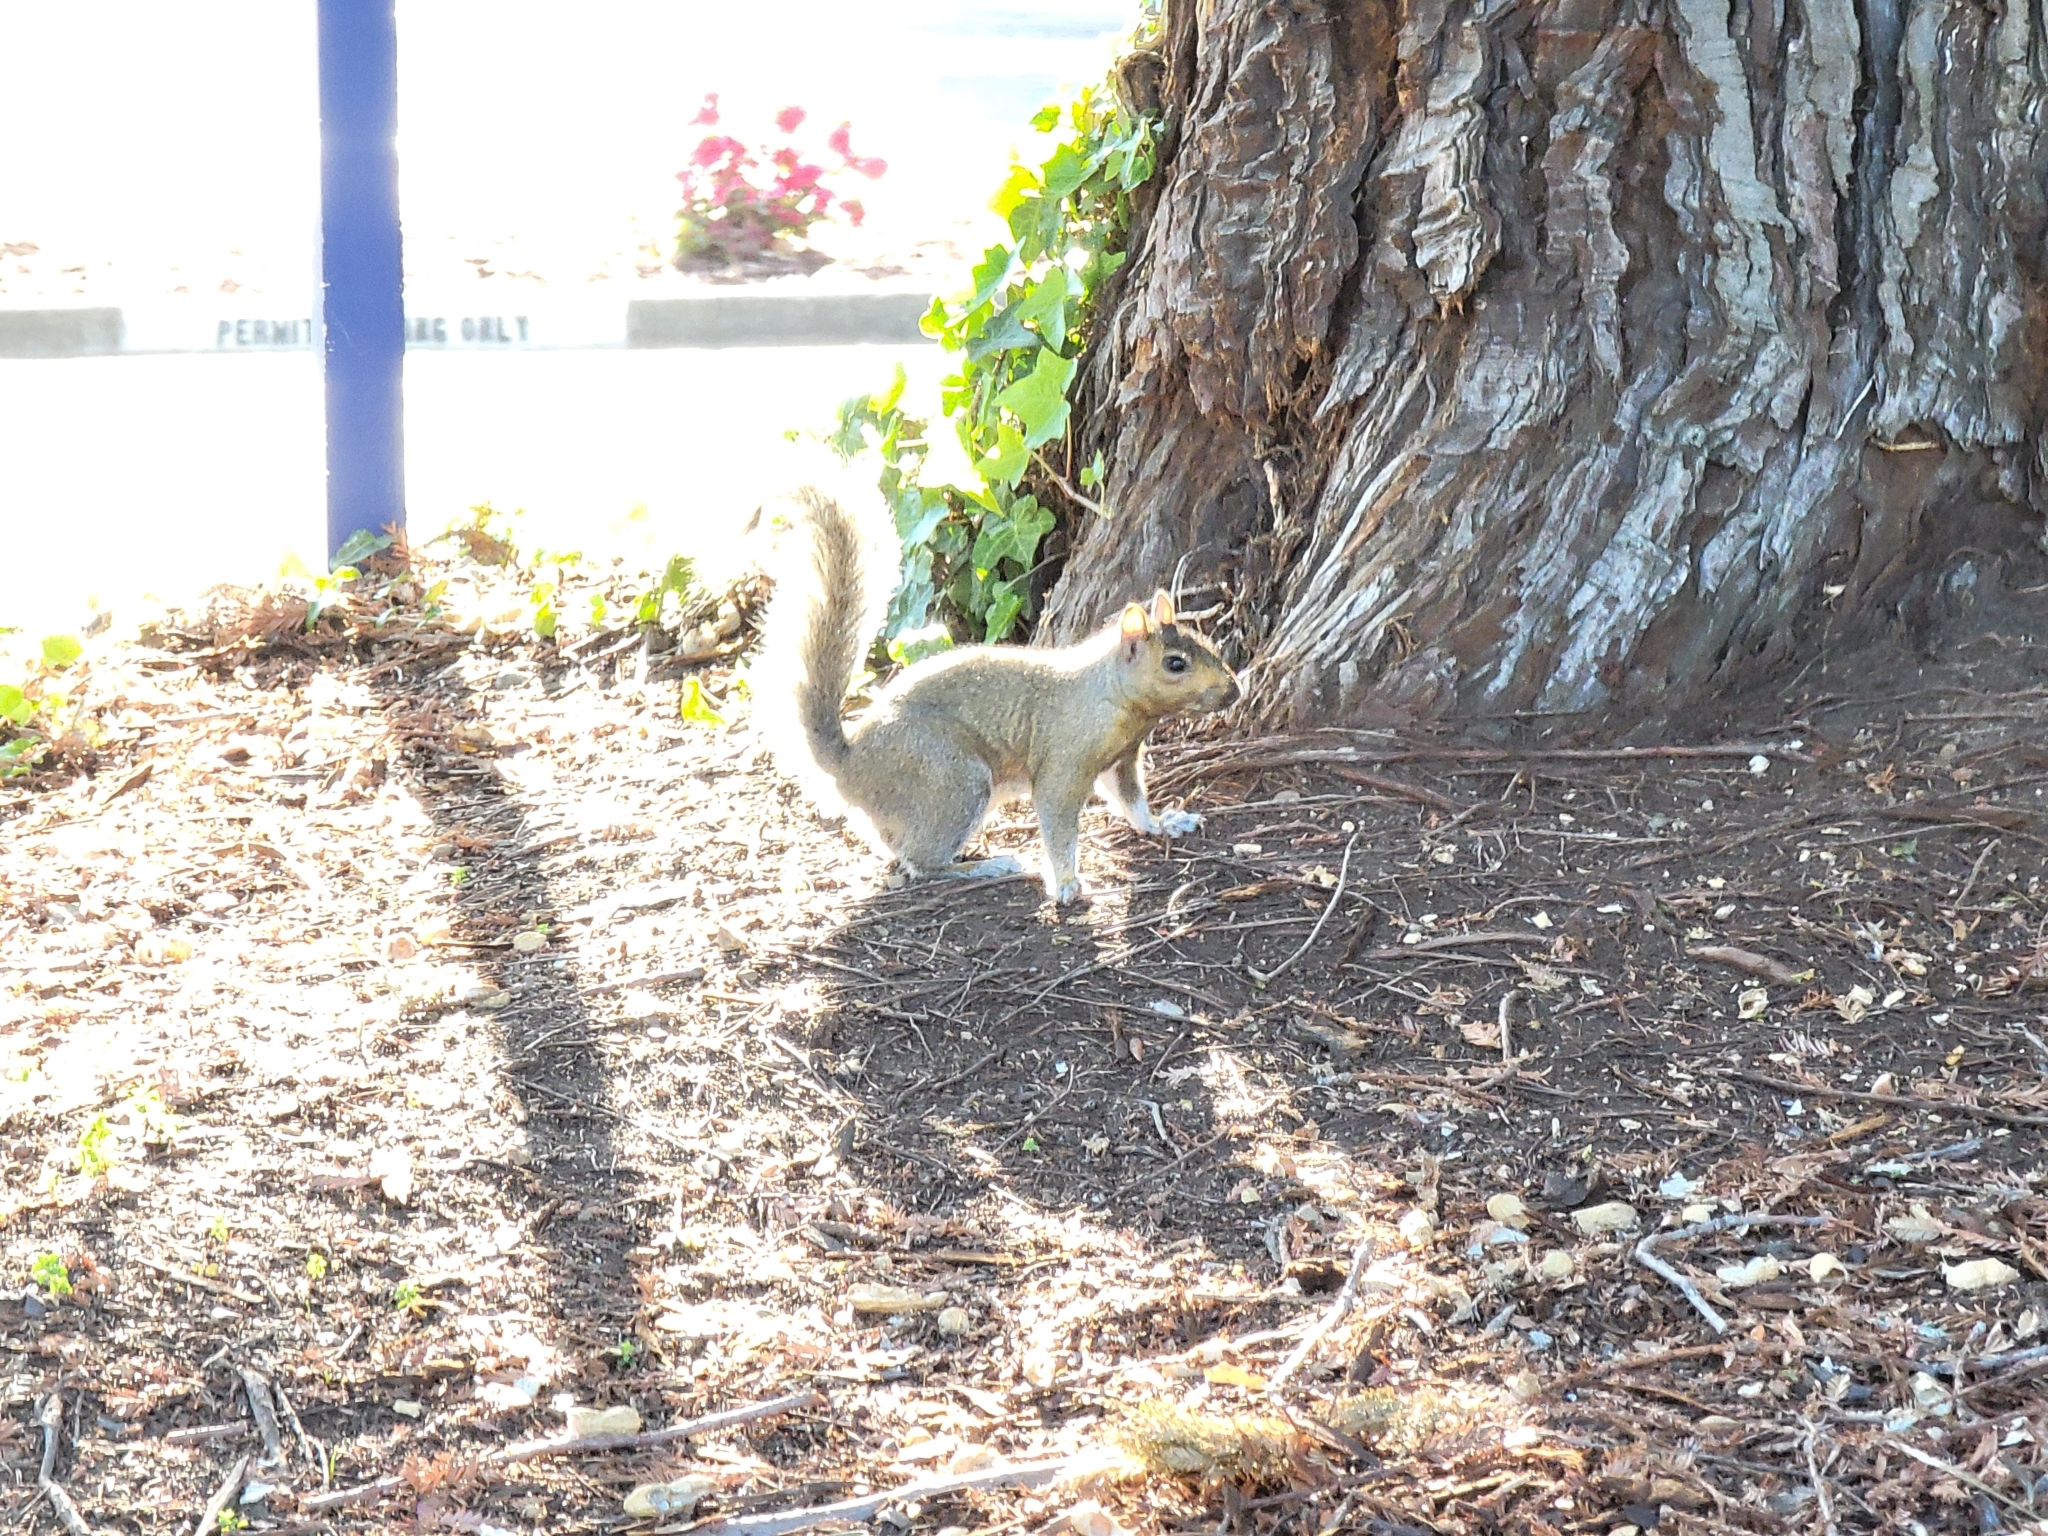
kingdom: Animalia
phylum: Chordata
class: Mammalia
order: Rodentia
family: Sciuridae
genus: Sciurus
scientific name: Sciurus carolinensis
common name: Eastern gray squirrel
